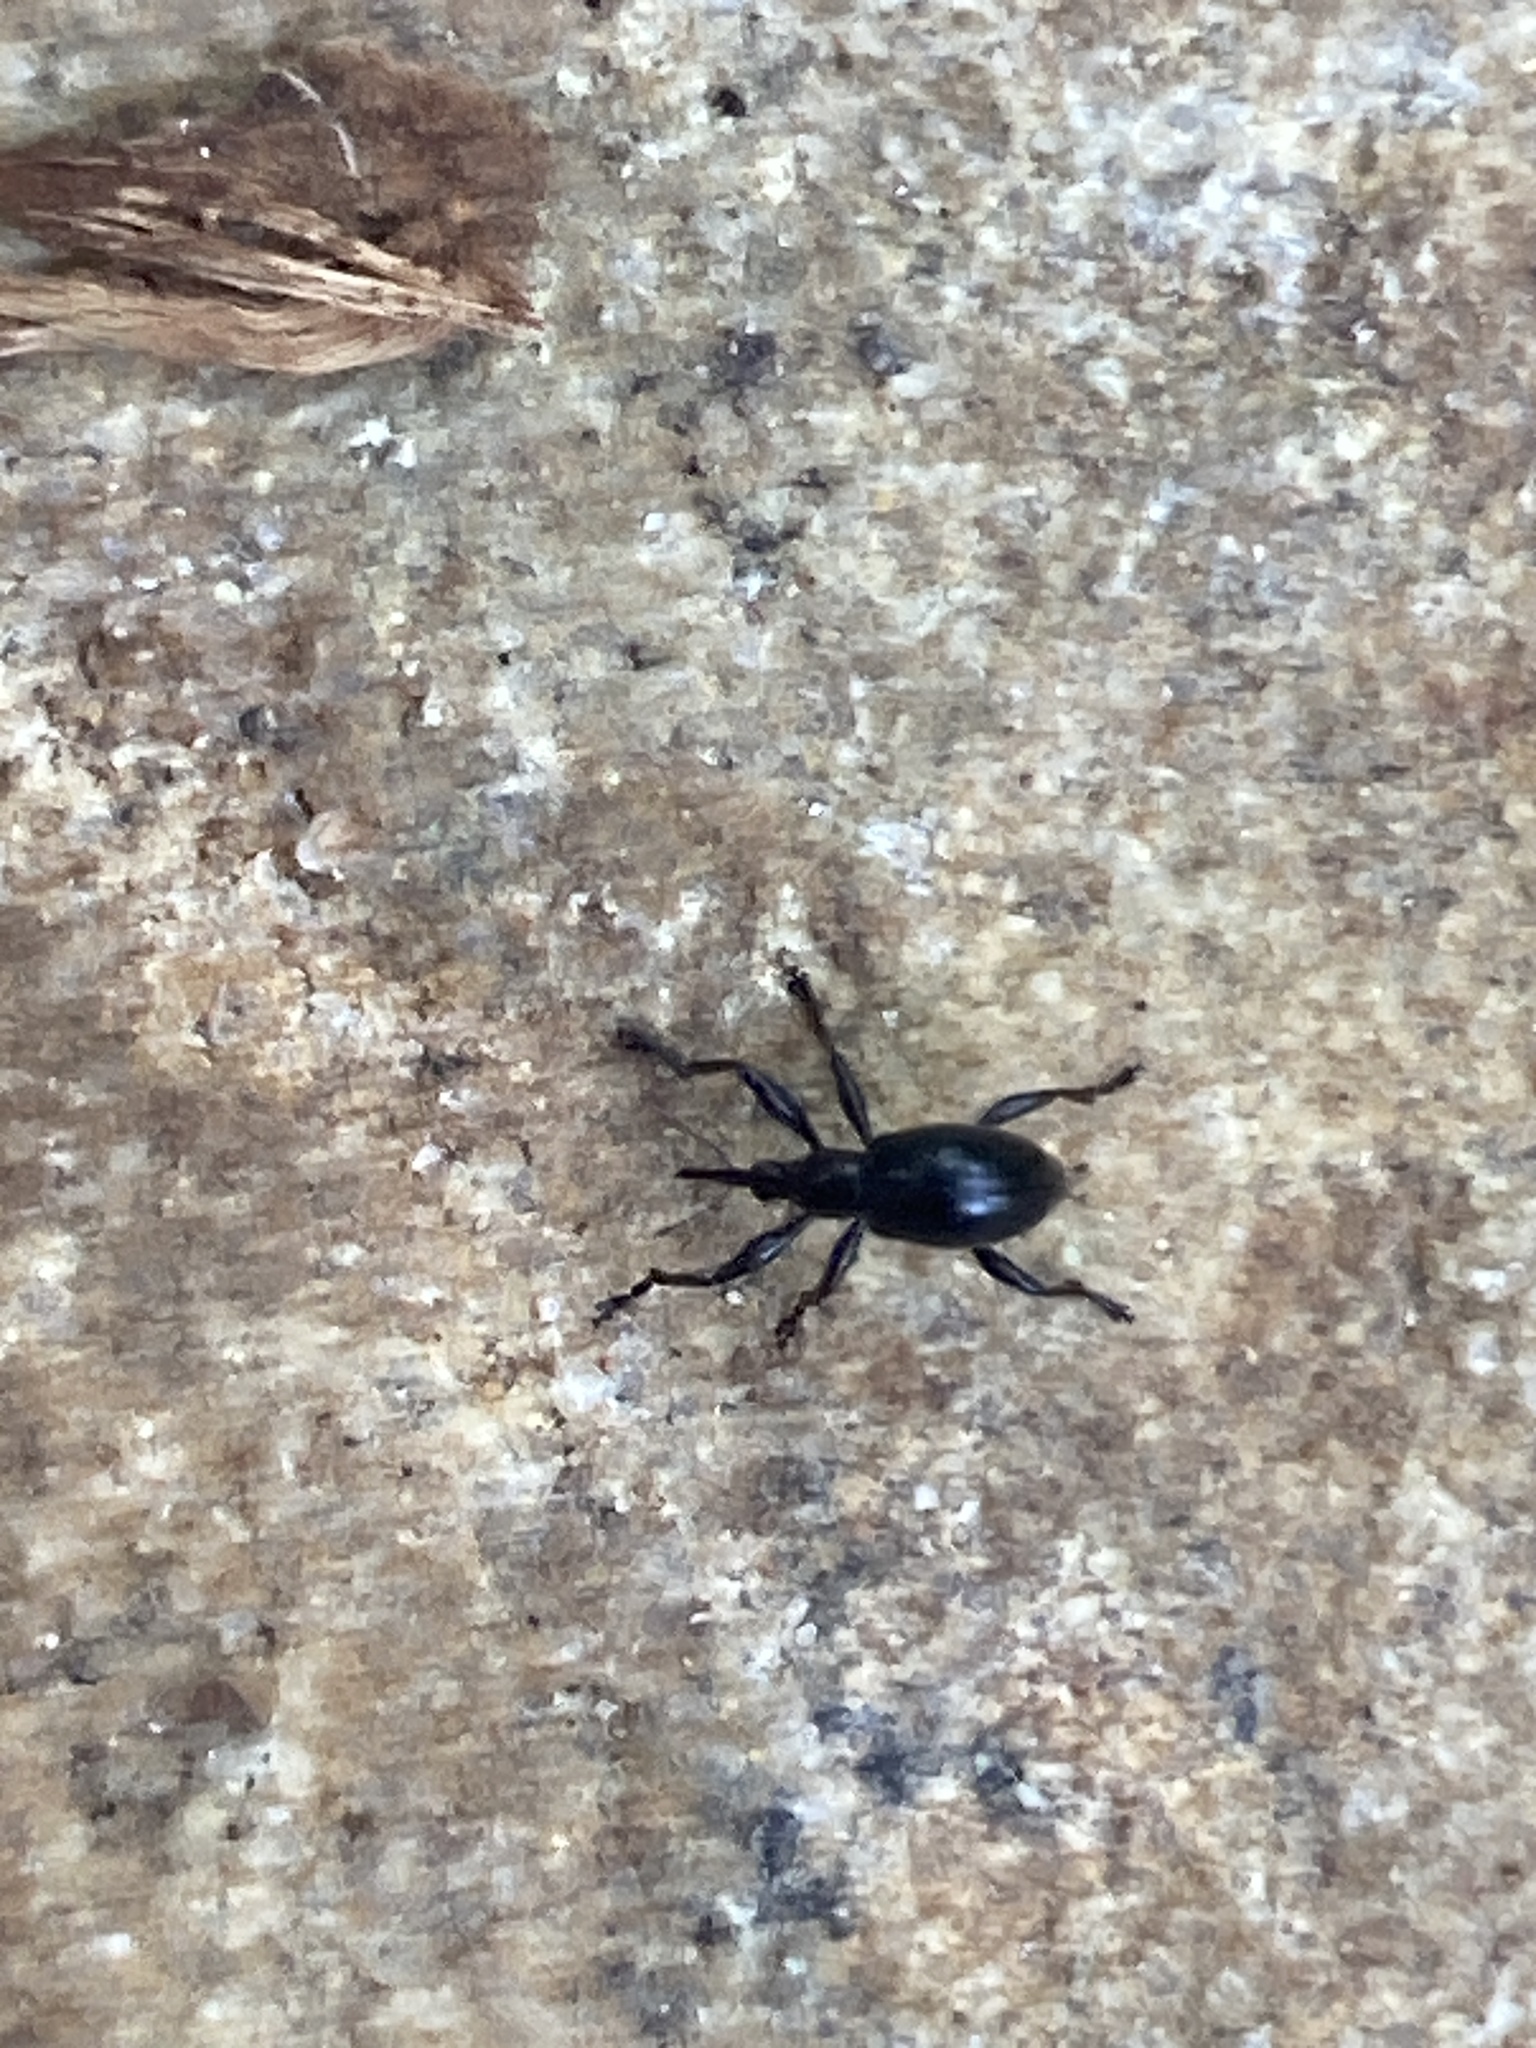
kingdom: Animalia
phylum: Arthropoda
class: Insecta
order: Coleoptera
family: Brentidae
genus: Nanomyrmacyba
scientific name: Nanomyrmacyba
